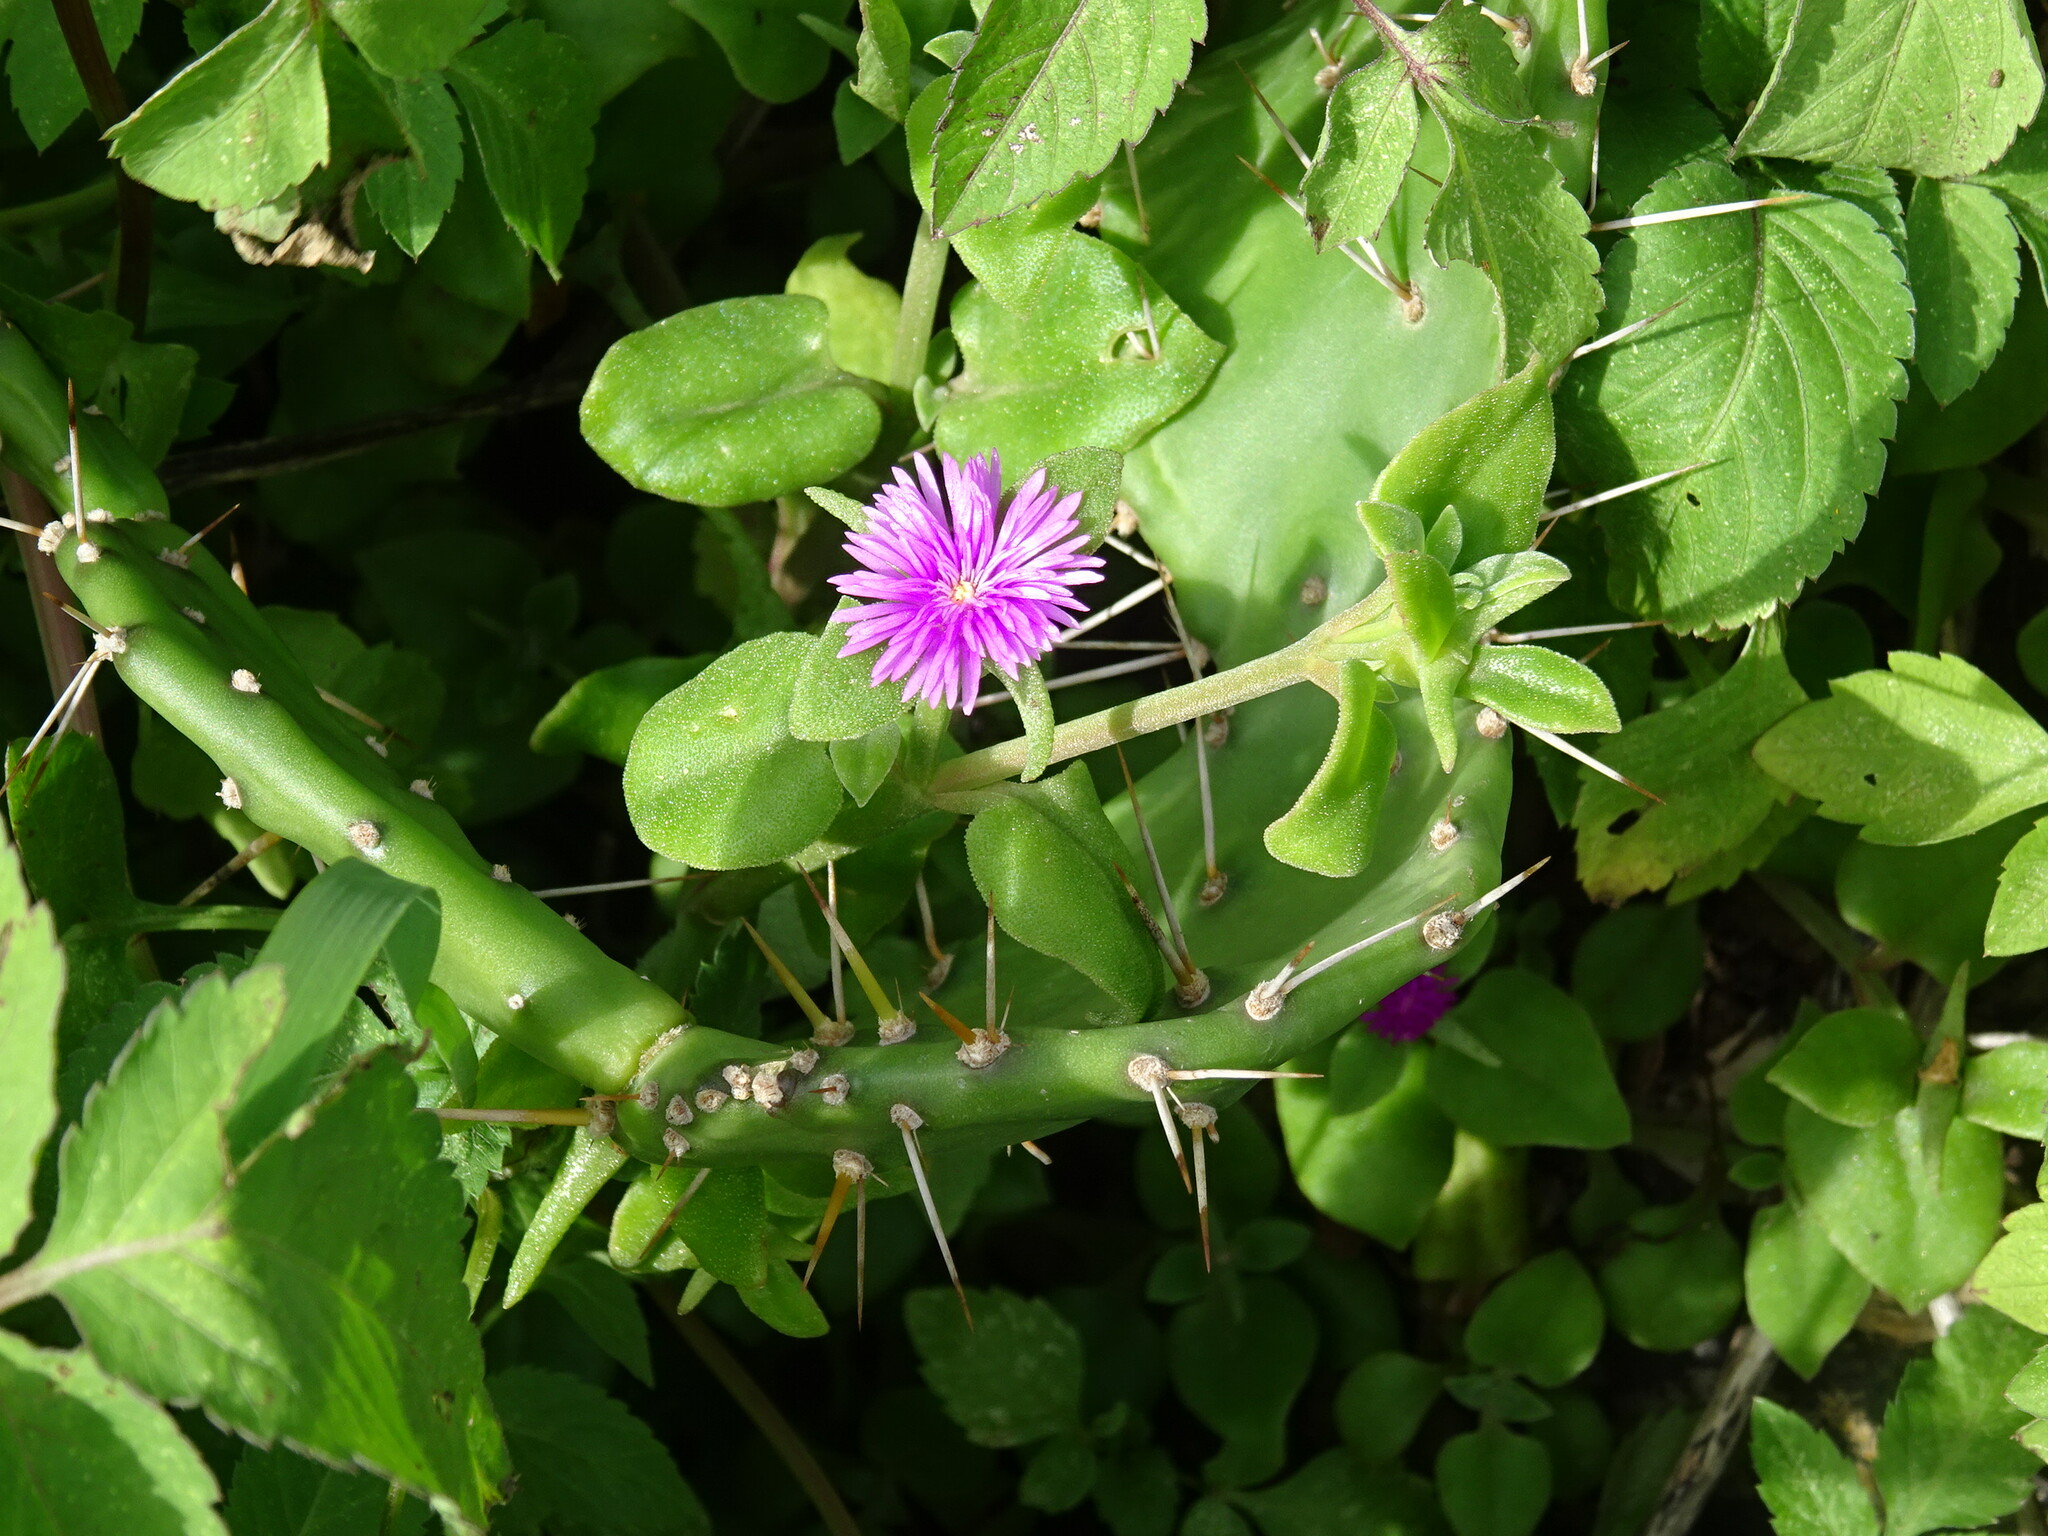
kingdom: Plantae
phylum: Tracheophyta
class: Magnoliopsida
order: Caryophyllales
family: Aizoaceae
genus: Mesembryanthemum
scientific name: Mesembryanthemum cordifolium
